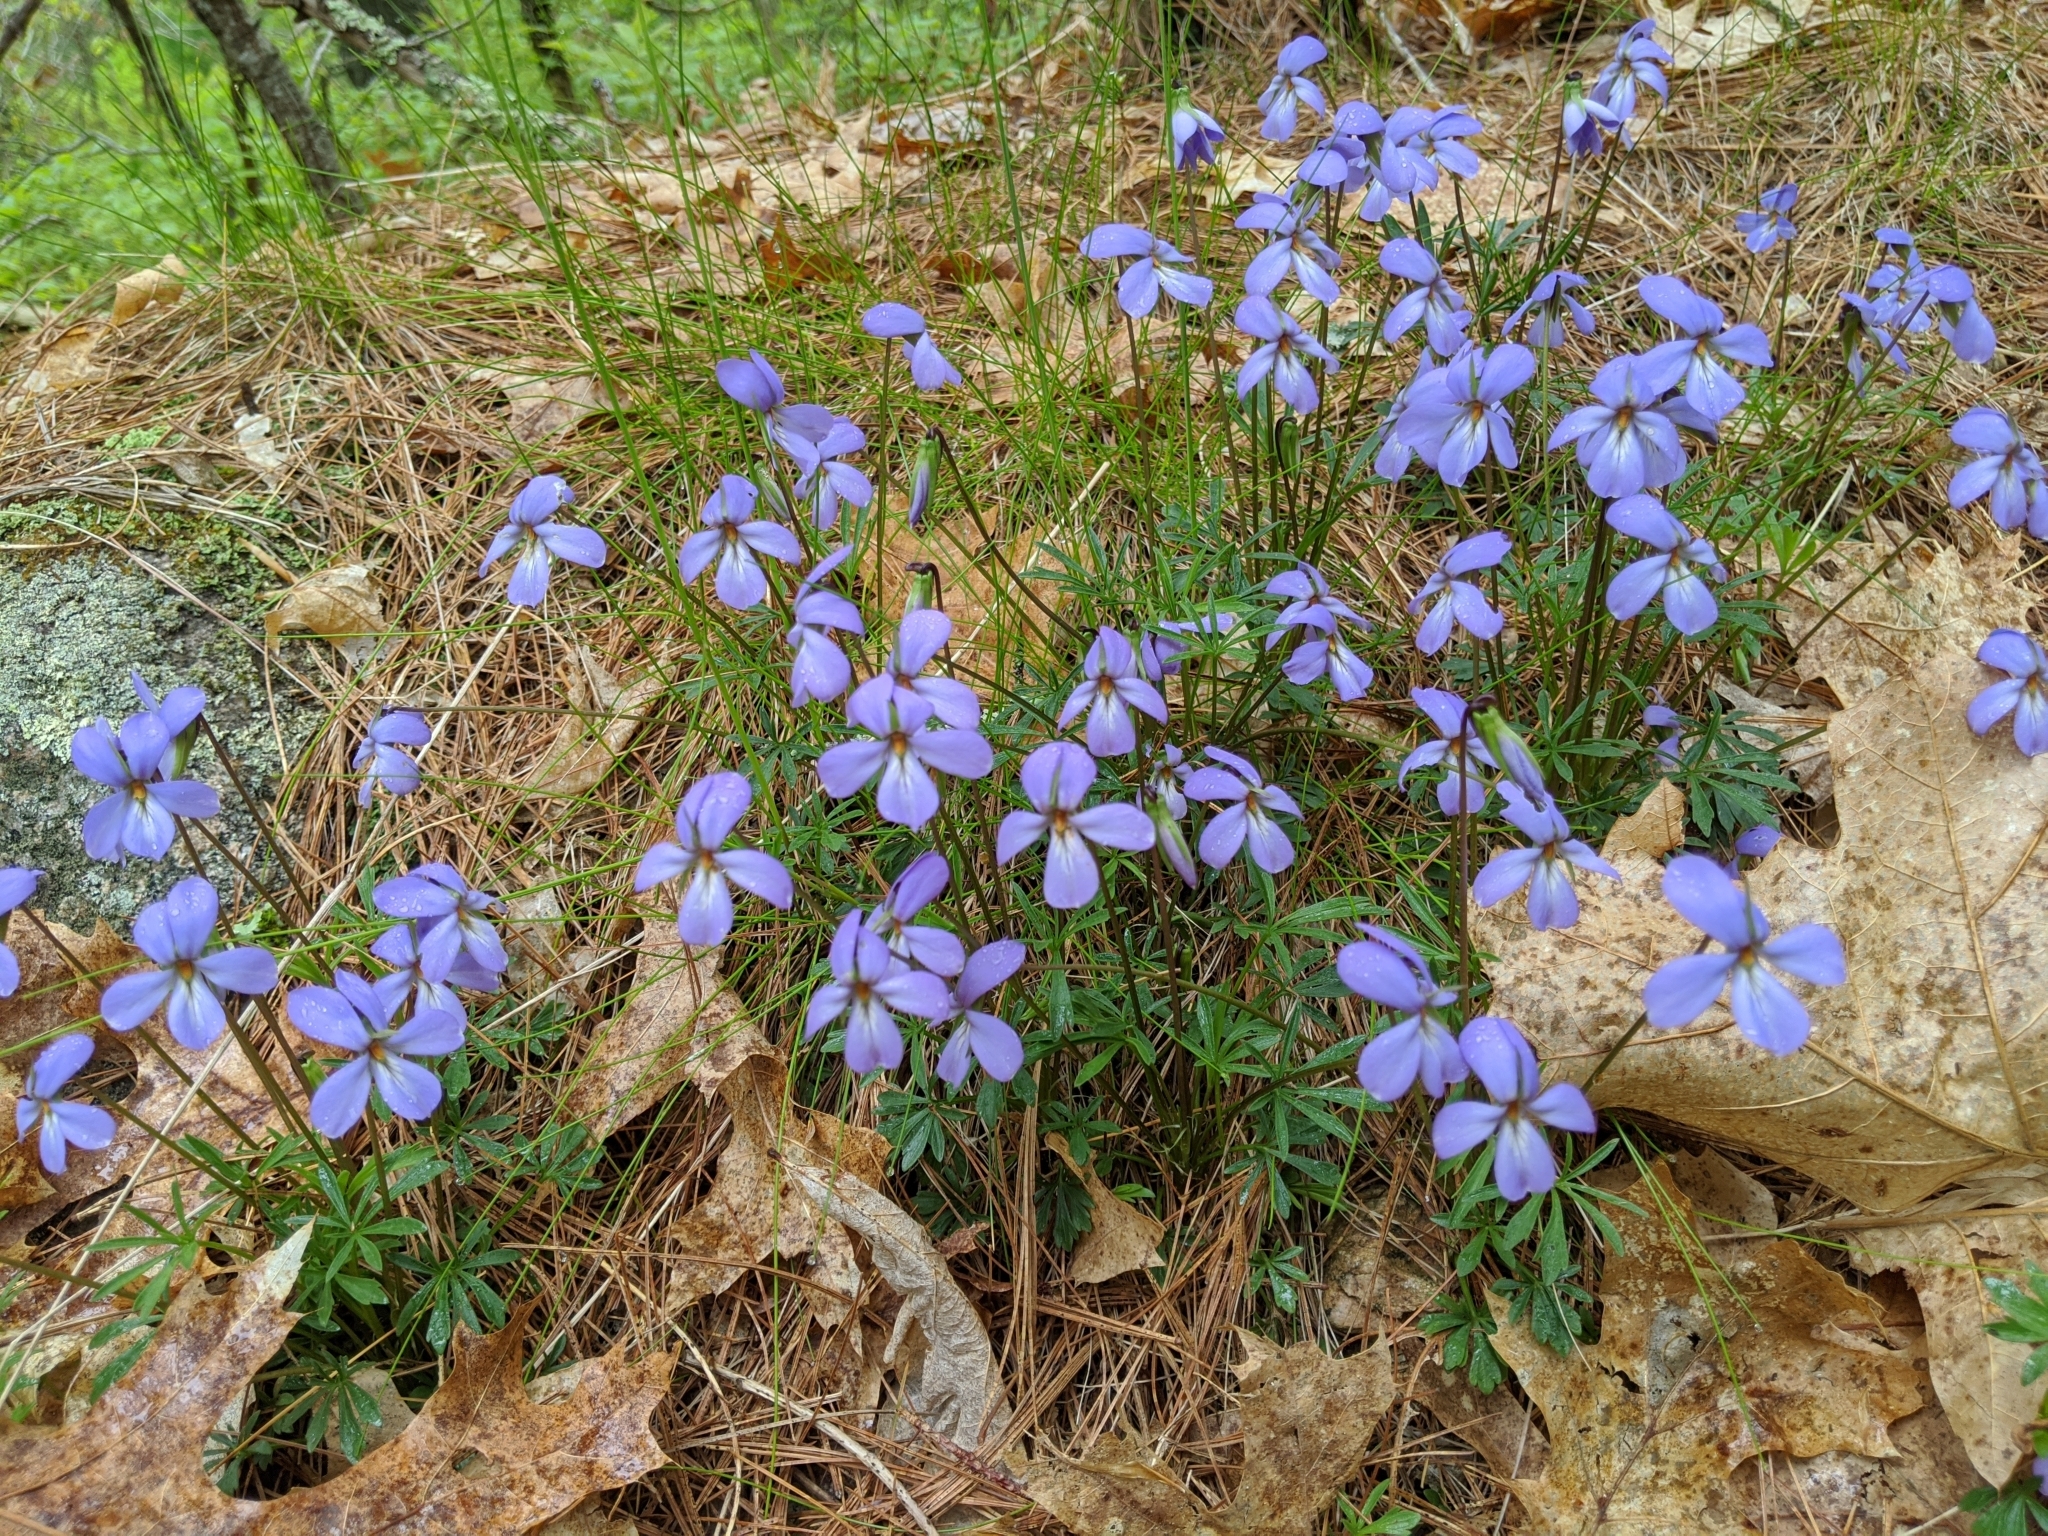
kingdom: Plantae
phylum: Tracheophyta
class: Magnoliopsida
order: Malpighiales
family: Violaceae
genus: Viola
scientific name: Viola pedata
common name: Pansy violet
